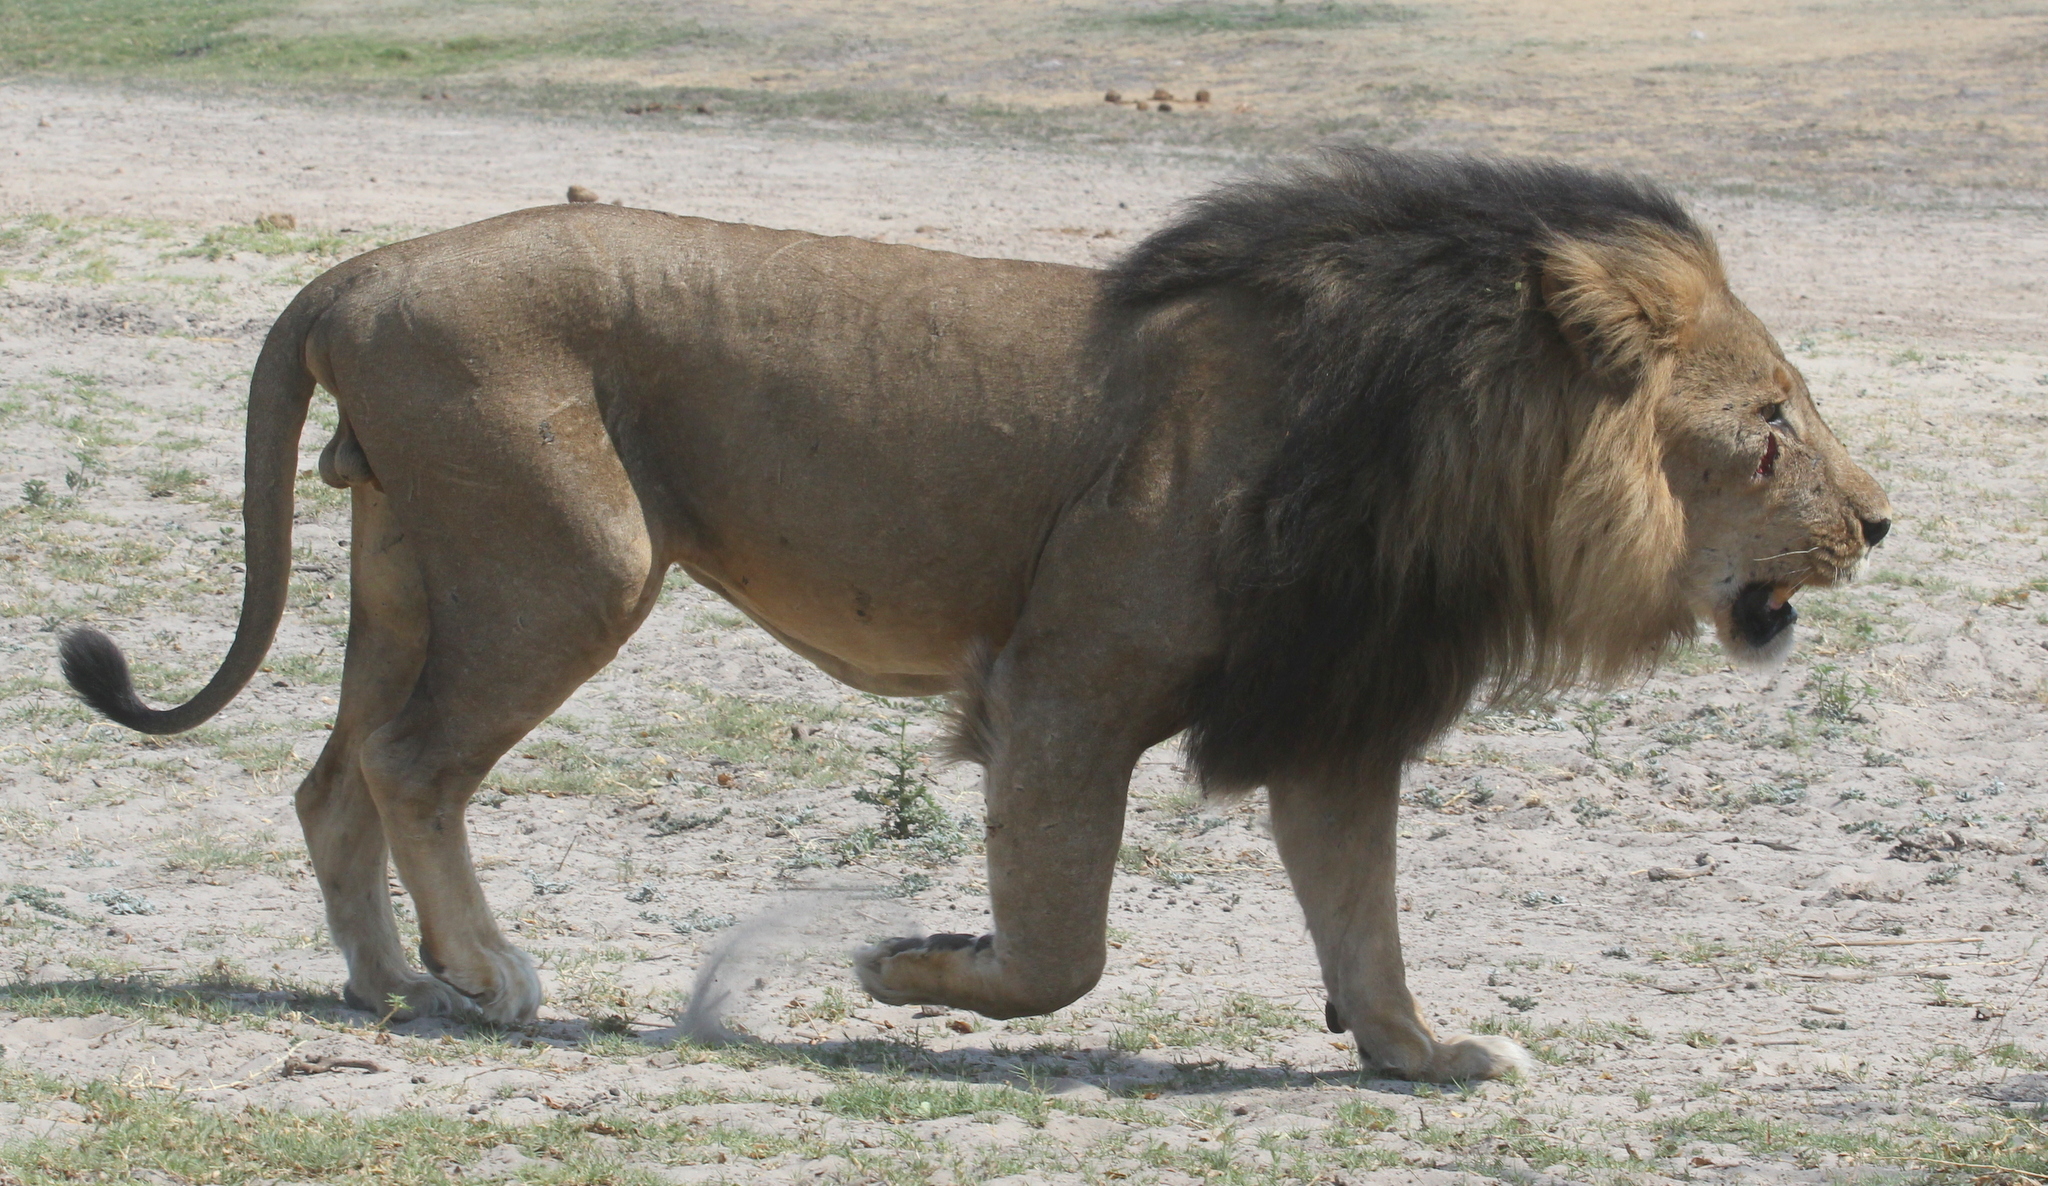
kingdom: Animalia
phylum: Chordata
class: Mammalia
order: Carnivora
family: Felidae
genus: Panthera
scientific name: Panthera leo
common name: Lion
